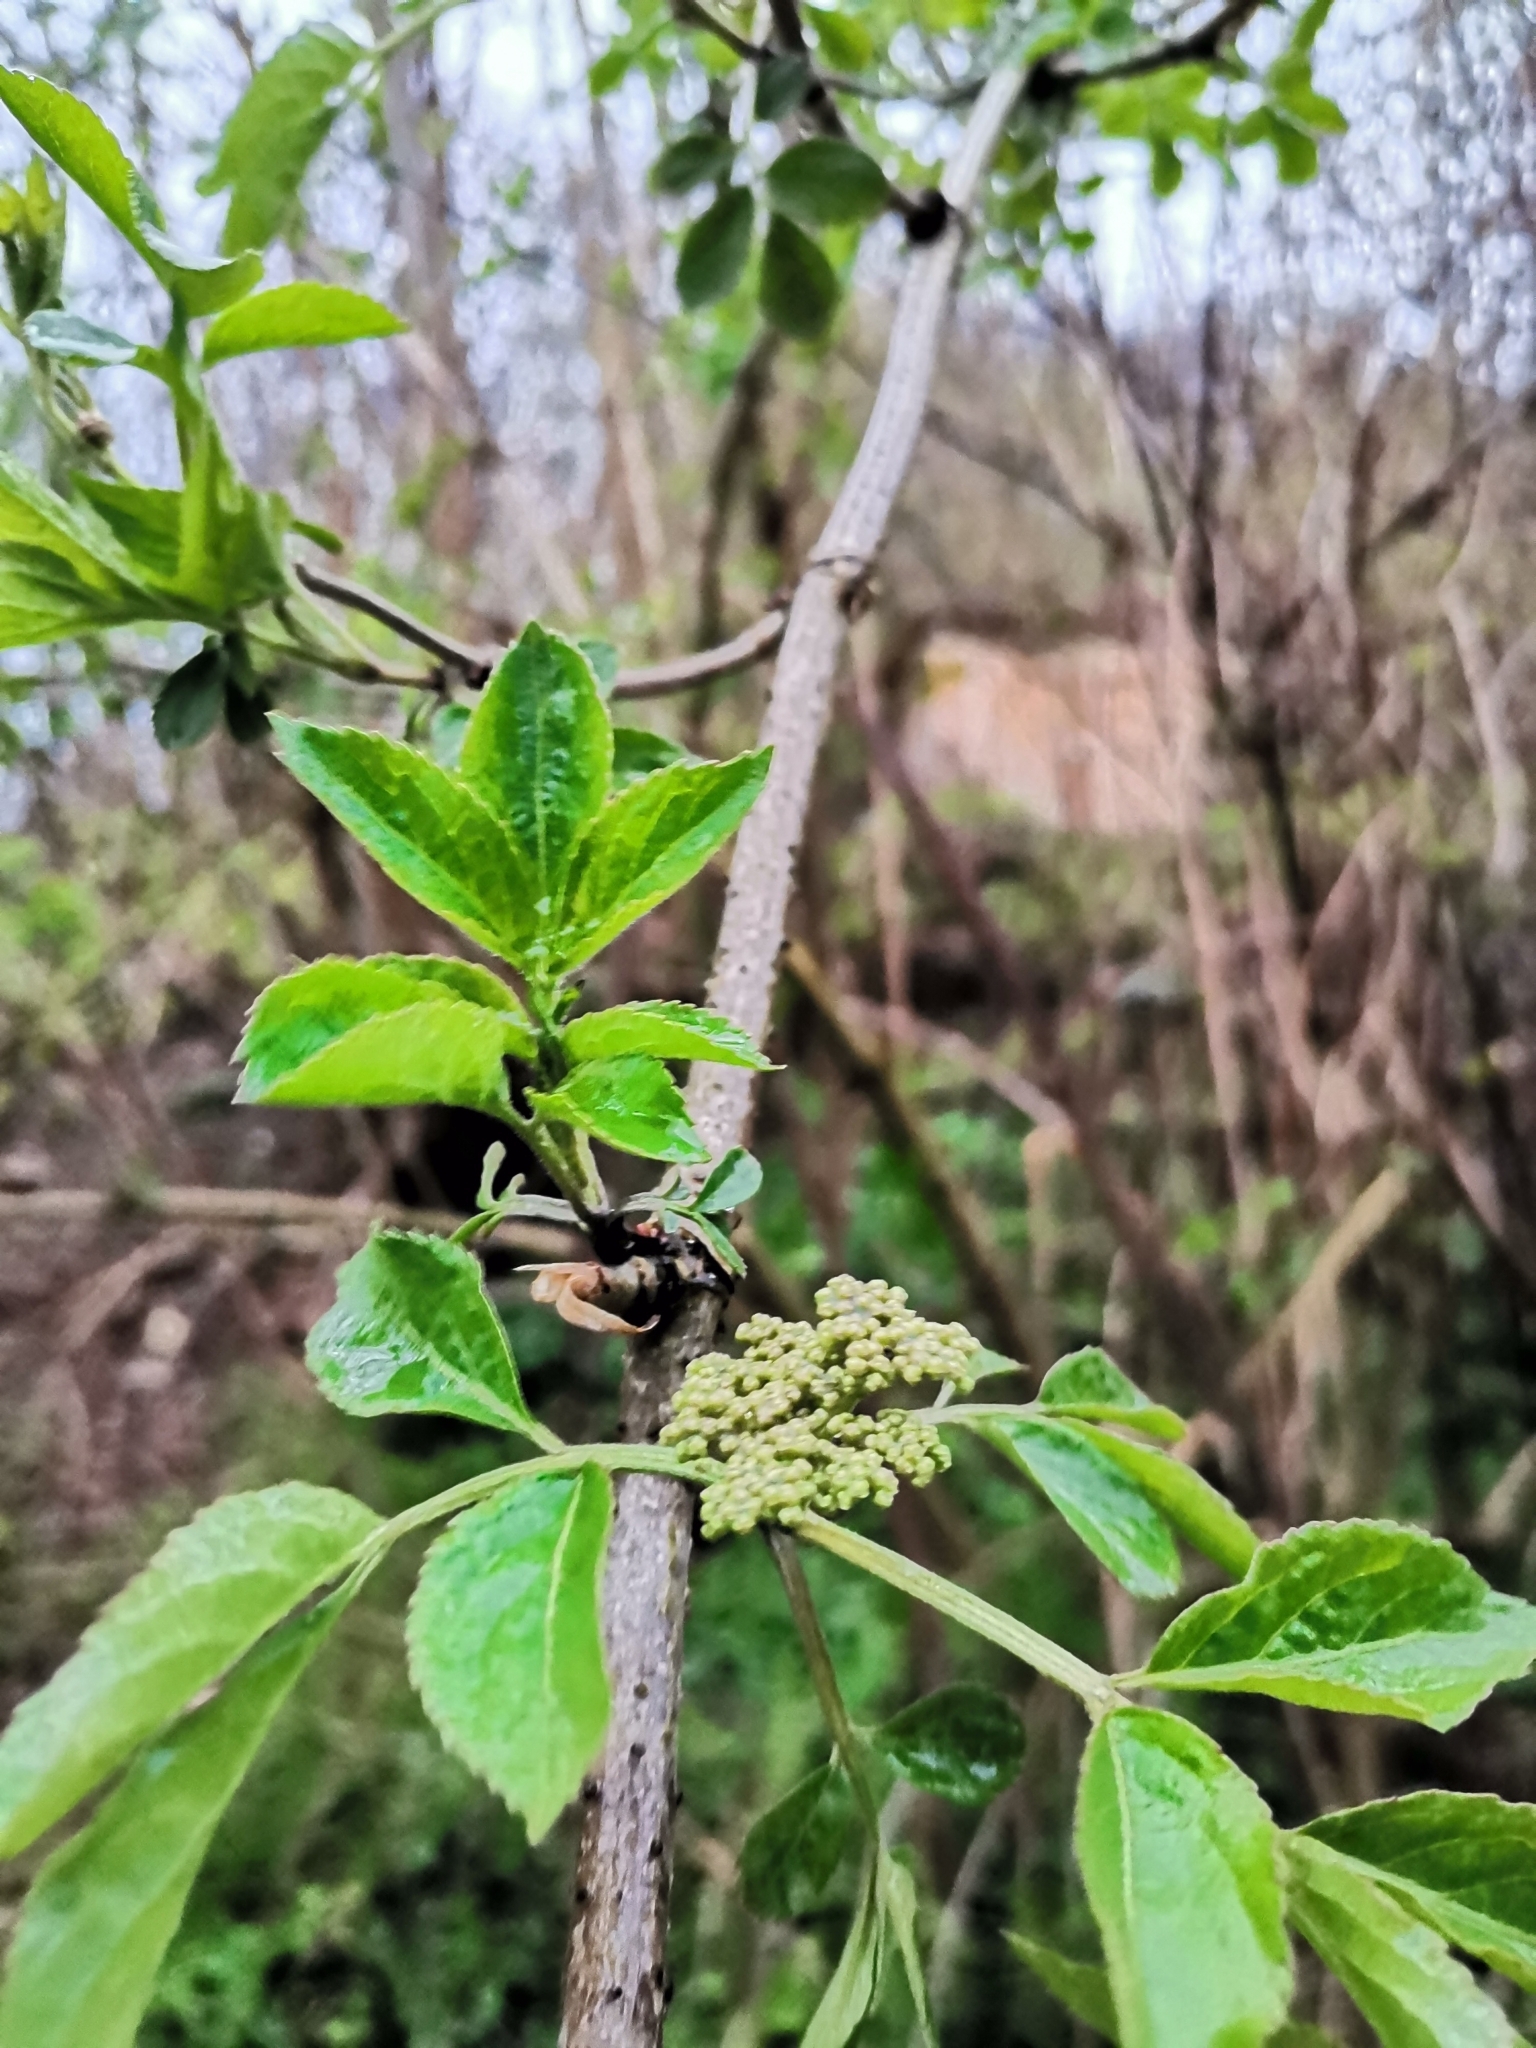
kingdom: Plantae
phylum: Tracheophyta
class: Magnoliopsida
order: Dipsacales
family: Viburnaceae
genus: Sambucus
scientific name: Sambucus nigra
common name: Elder
